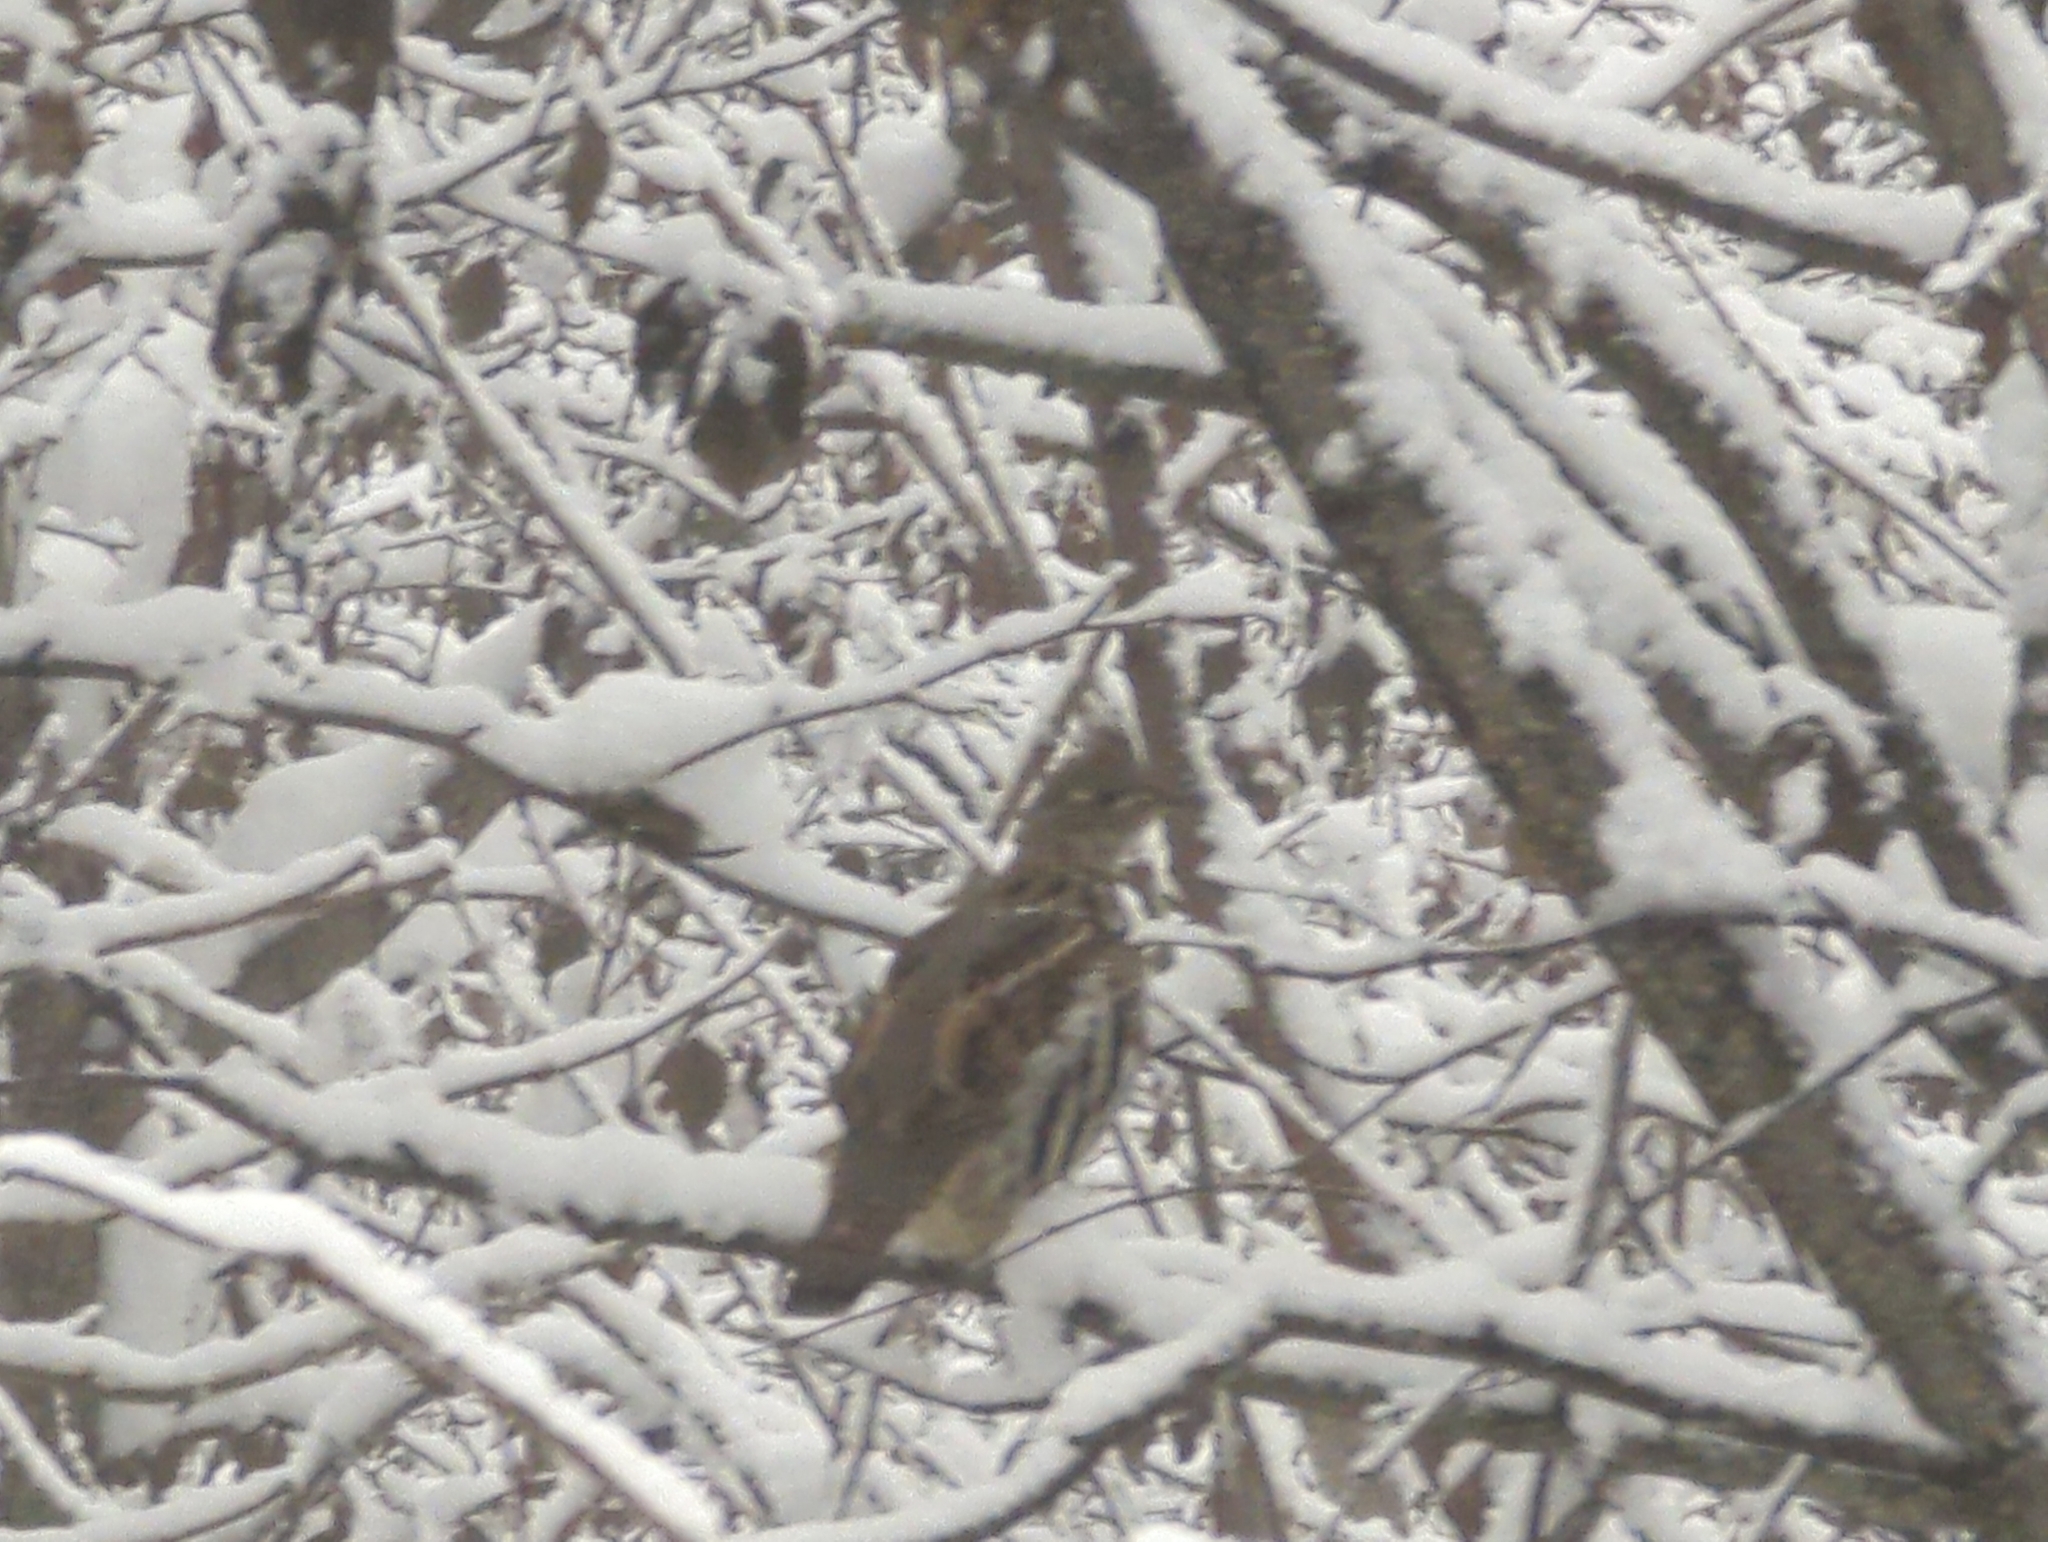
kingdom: Animalia
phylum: Chordata
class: Aves
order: Galliformes
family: Phasianidae
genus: Bonasa
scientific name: Bonasa umbellus
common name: Ruffed grouse
